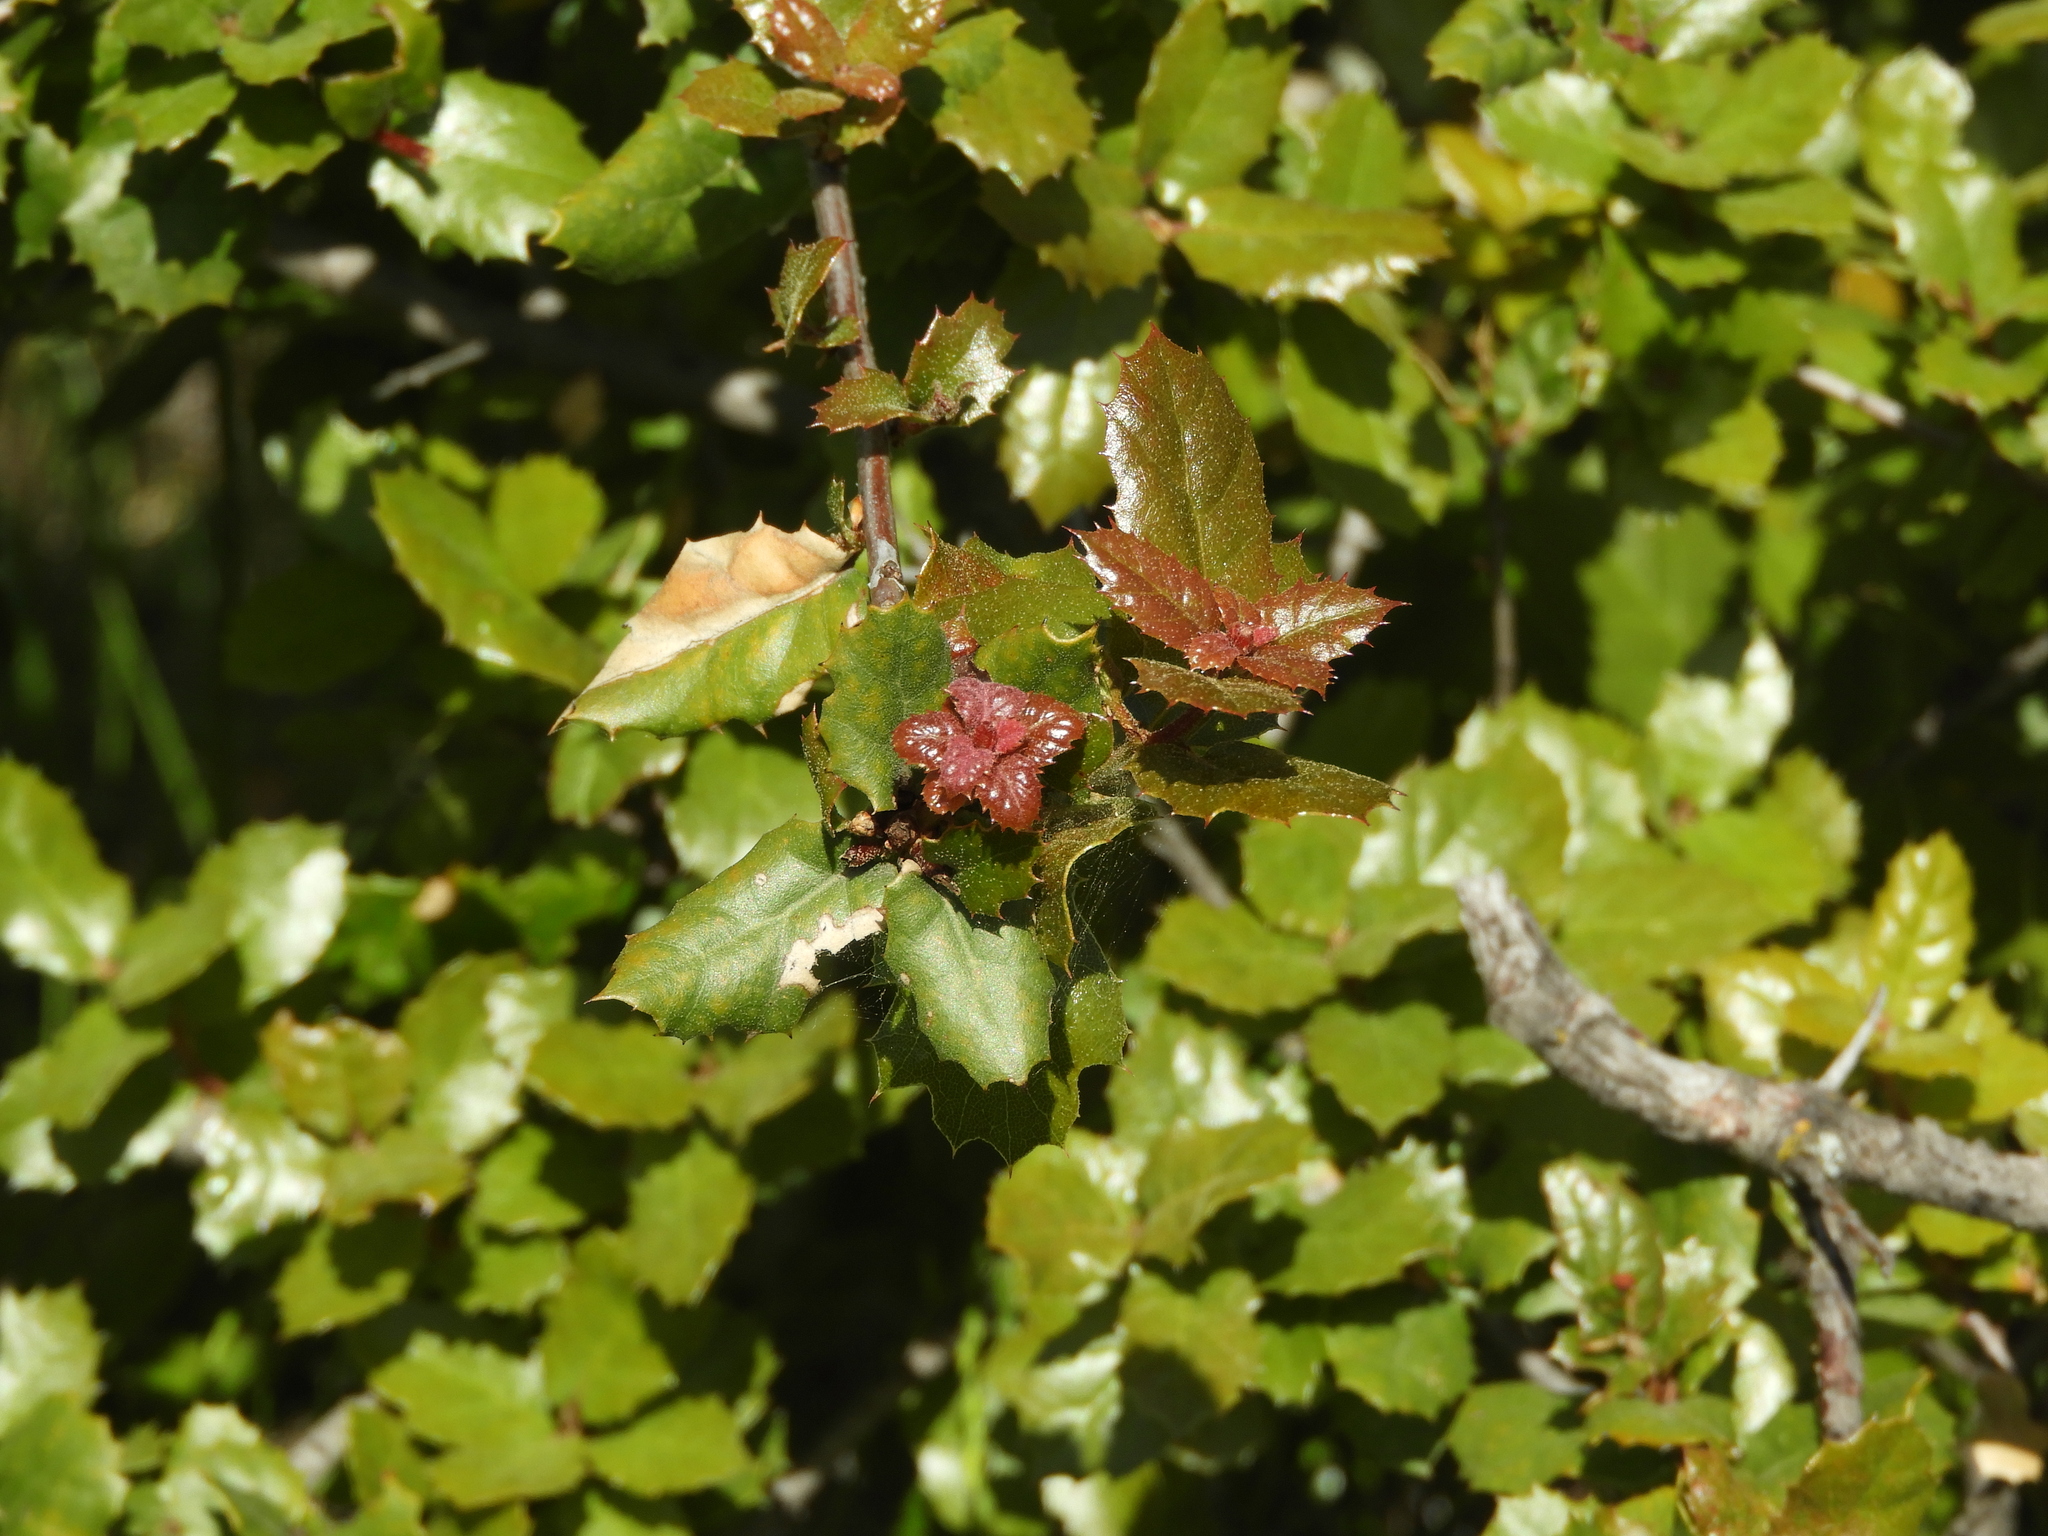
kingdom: Plantae
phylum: Tracheophyta
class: Magnoliopsida
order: Fagales
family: Fagaceae
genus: Quercus
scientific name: Quercus agrifolia
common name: California live oak
